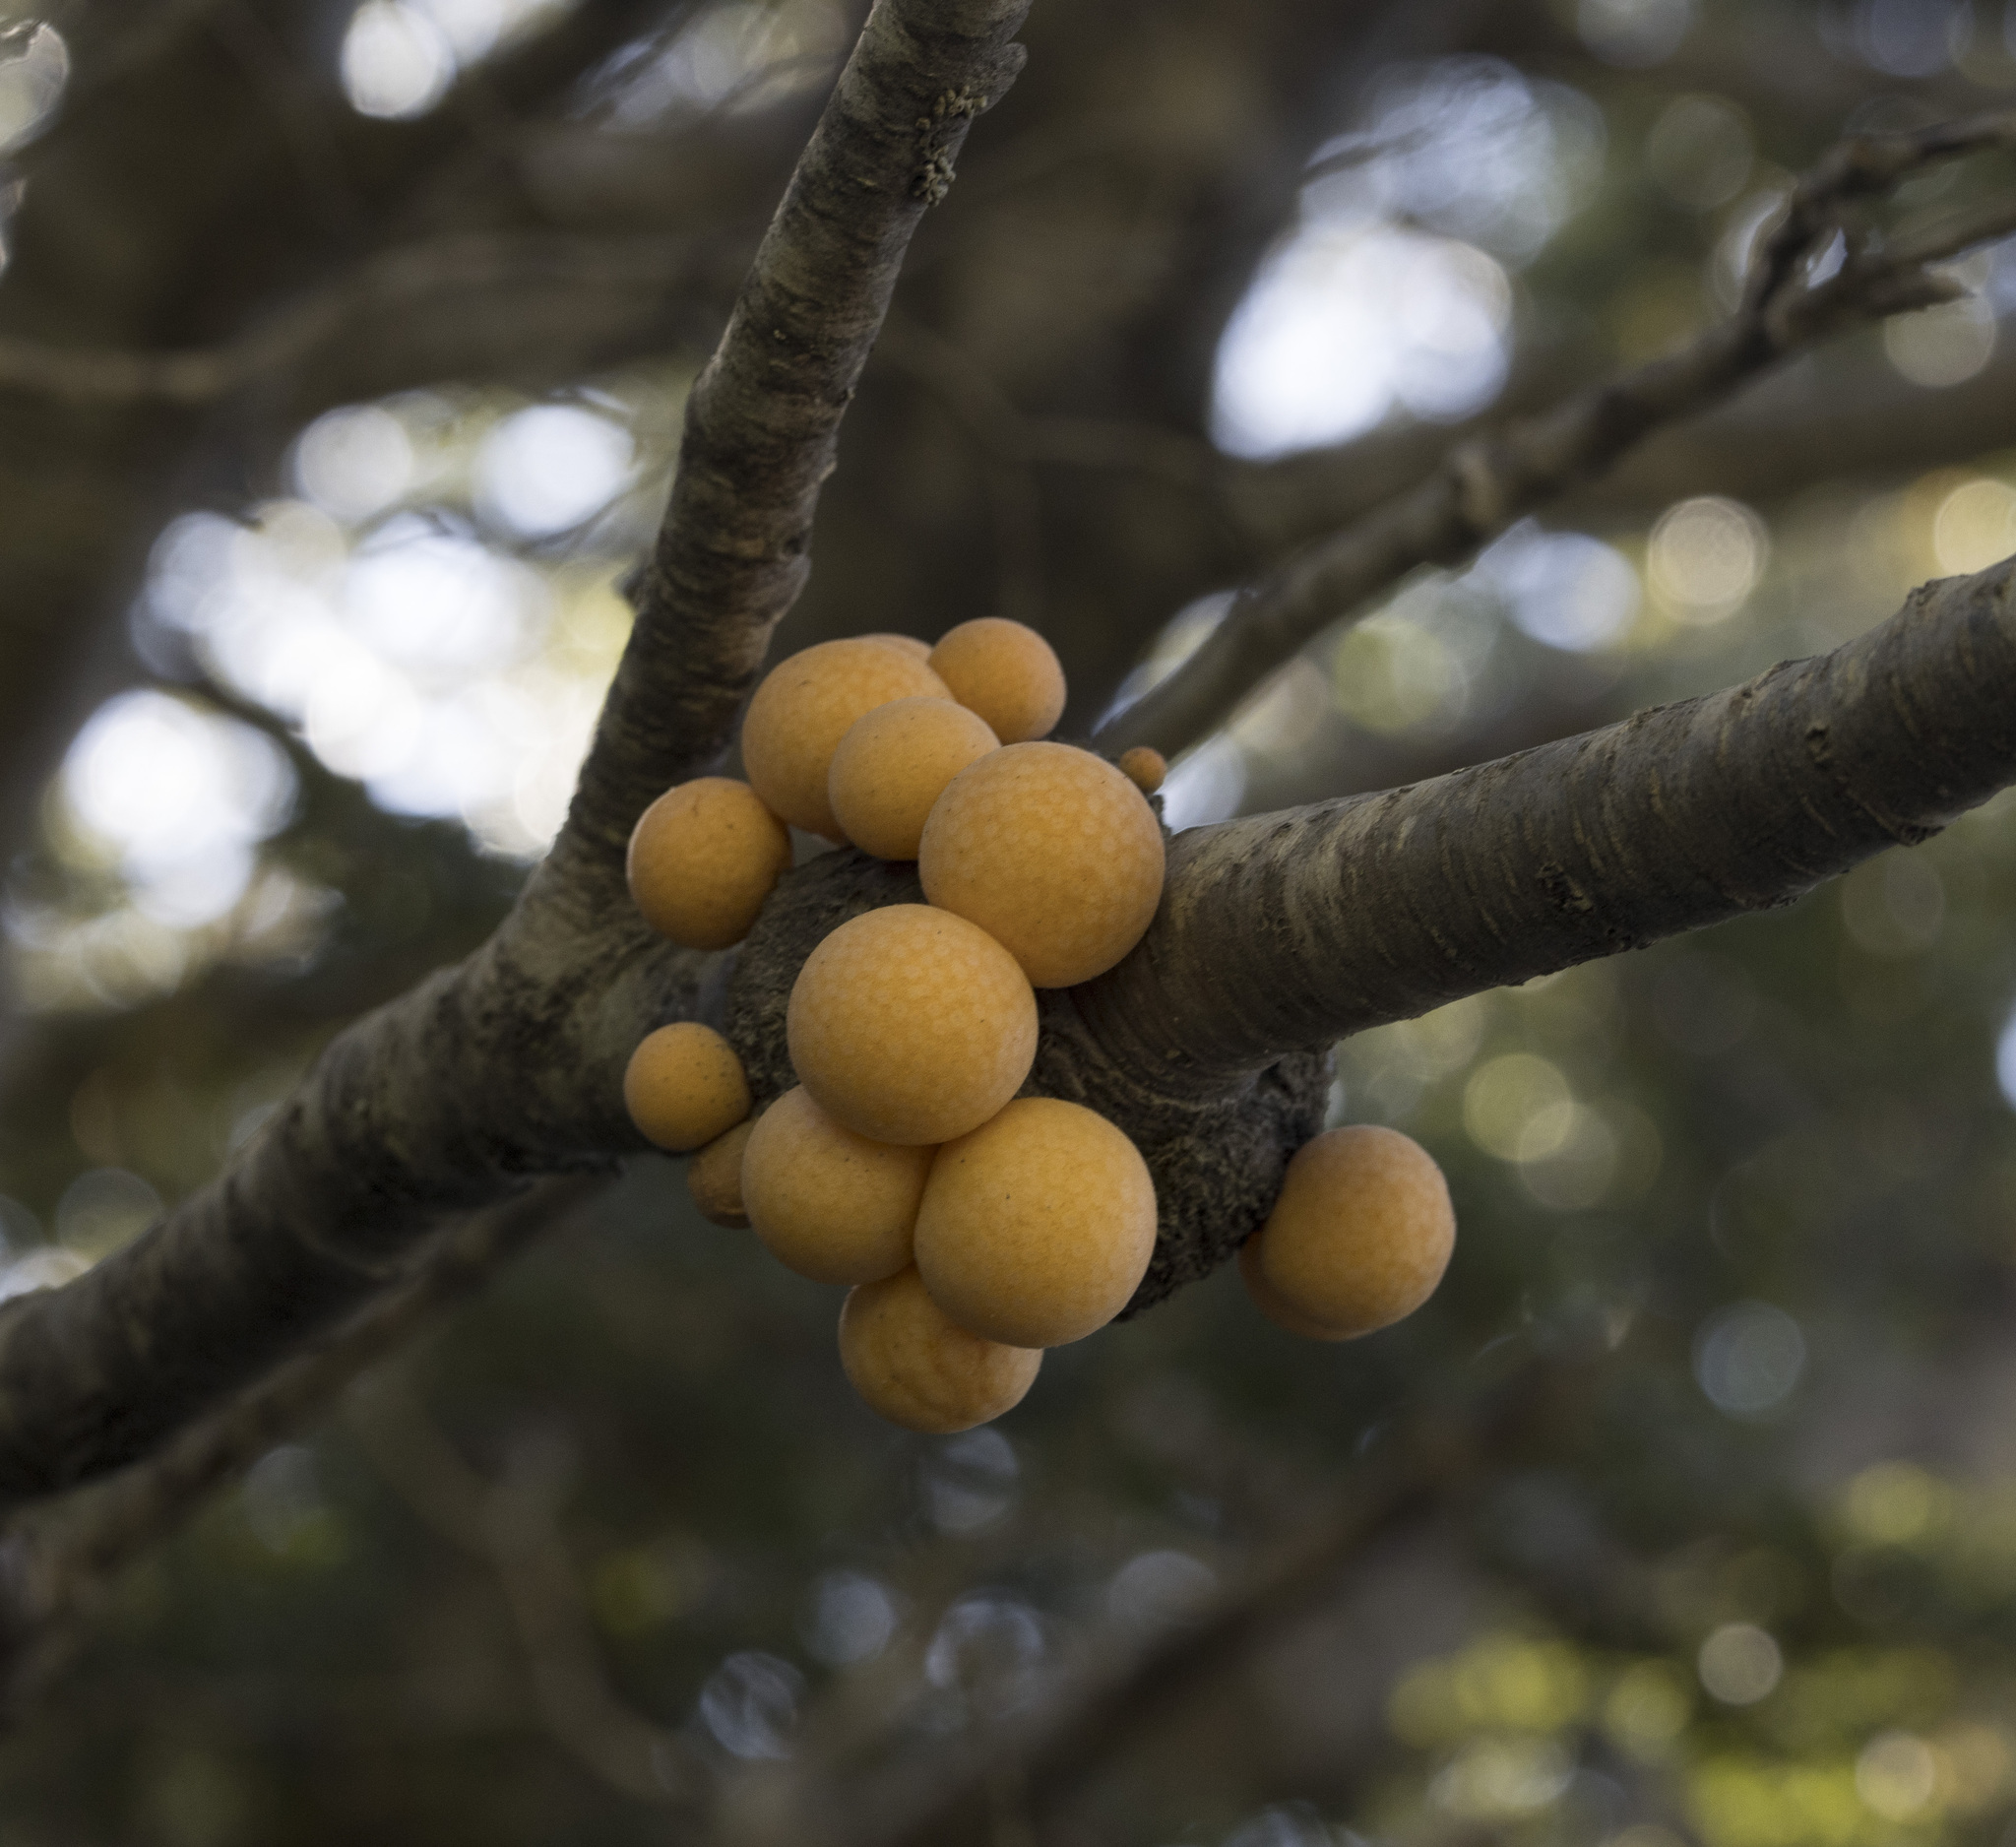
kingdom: Fungi
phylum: Ascomycota
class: Leotiomycetes
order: Cyttariales
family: Cyttariaceae
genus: Cyttaria
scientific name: Cyttaria hariotii
